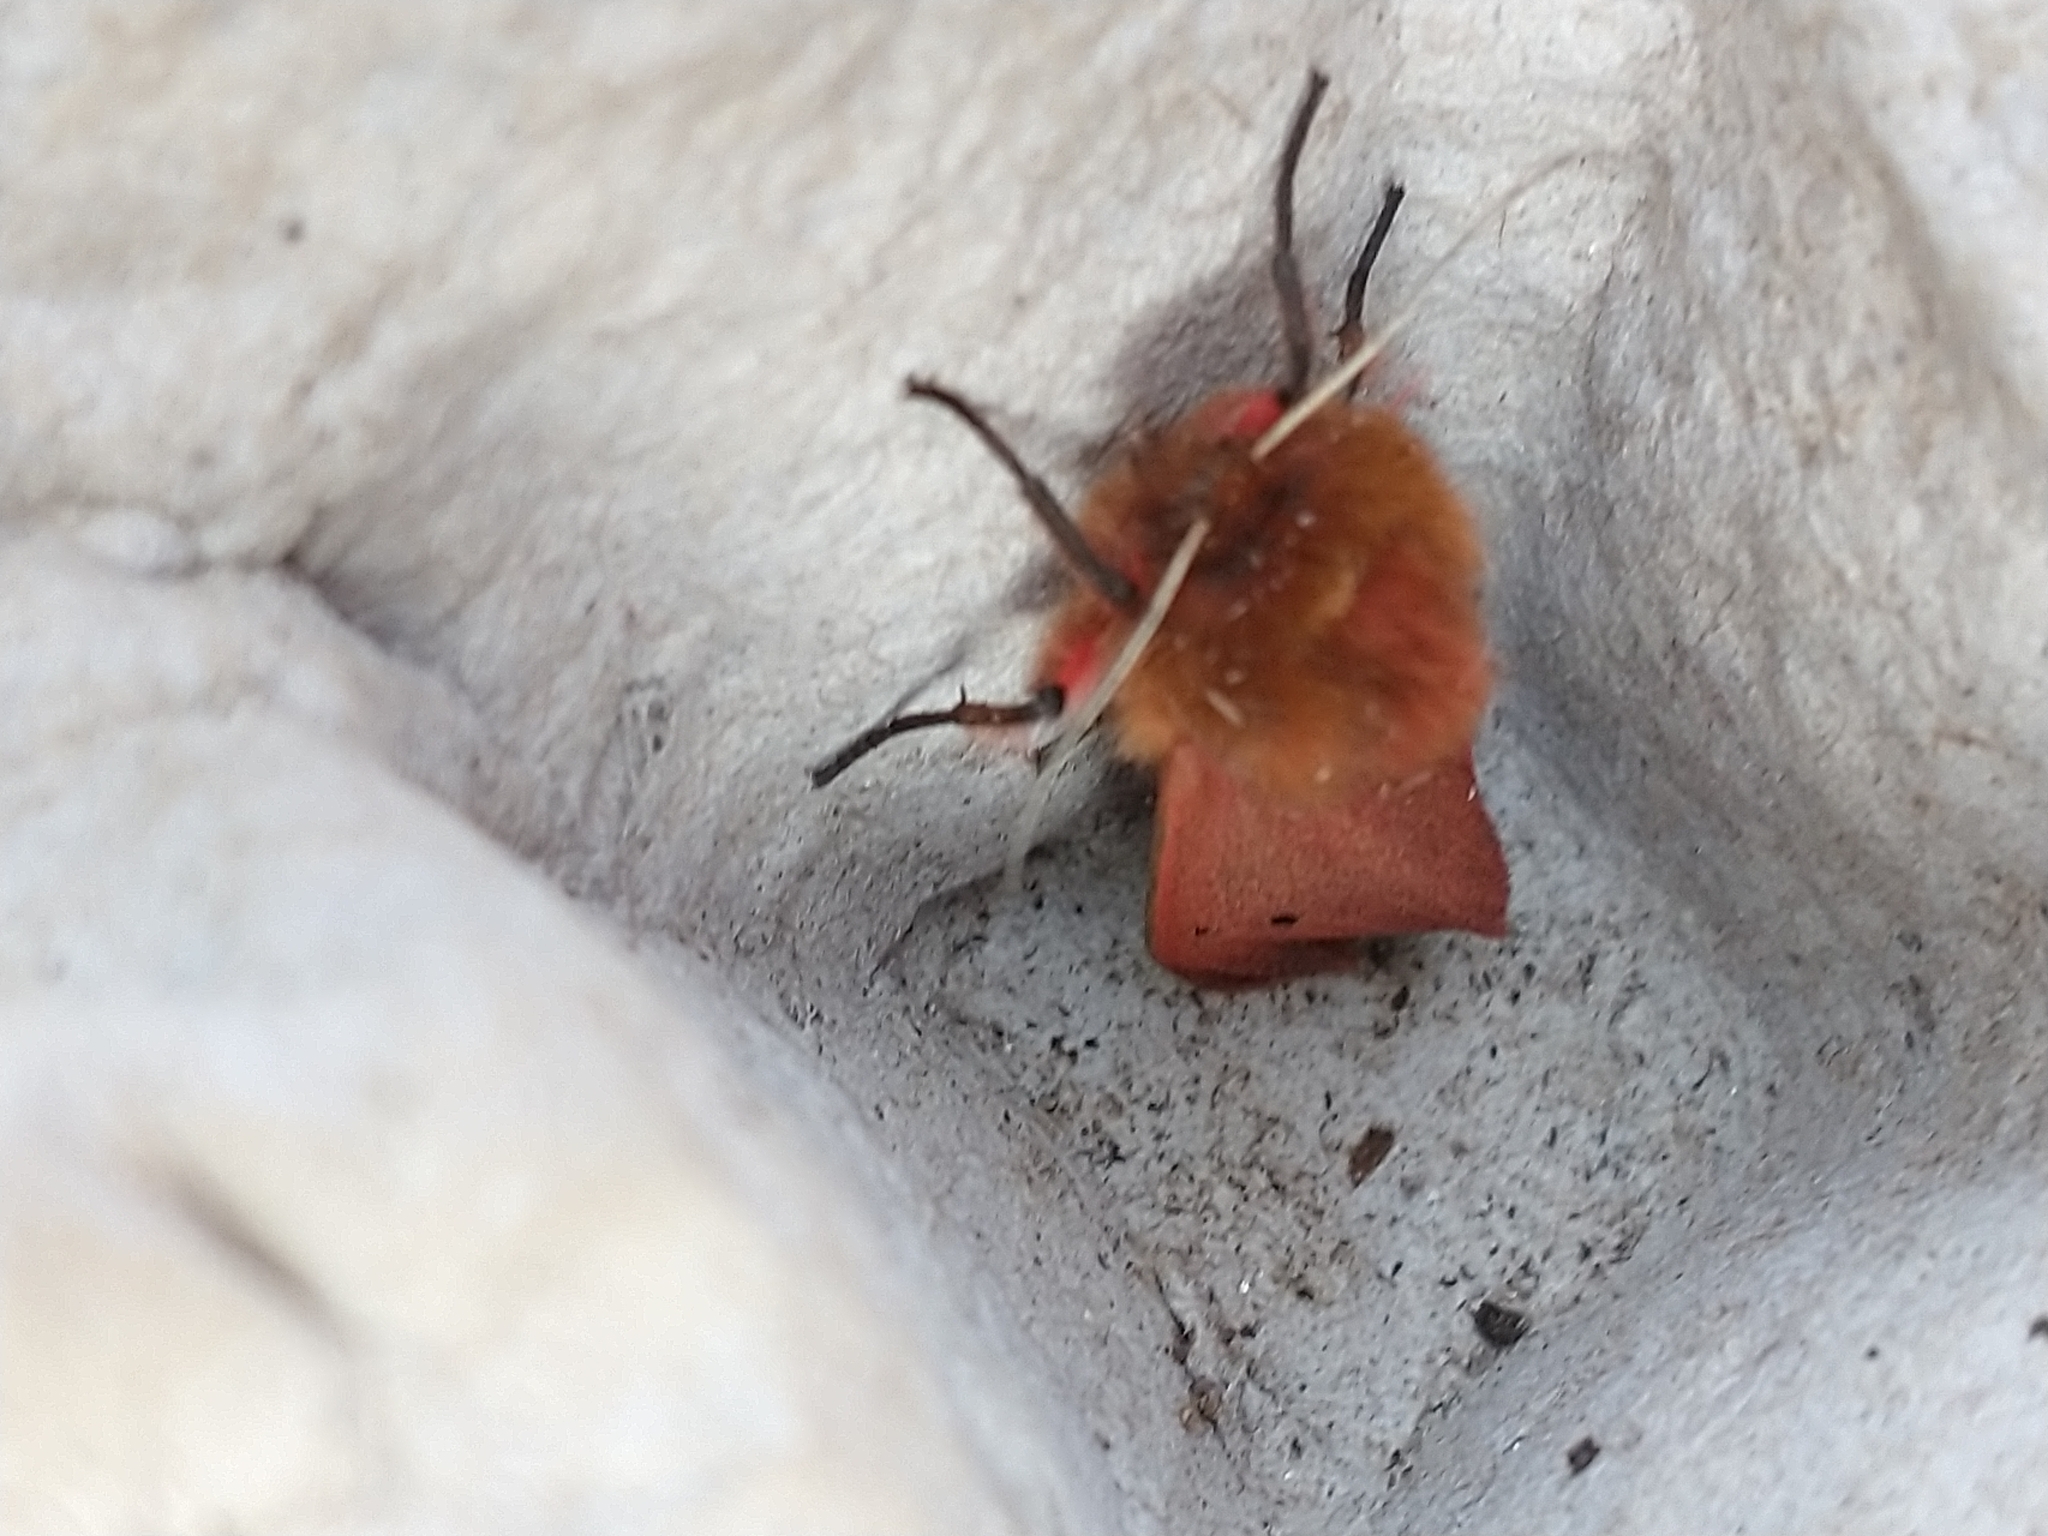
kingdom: Animalia
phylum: Arthropoda
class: Insecta
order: Lepidoptera
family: Erebidae
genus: Phragmatobia
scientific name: Phragmatobia fuliginosa
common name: Ruby tiger
